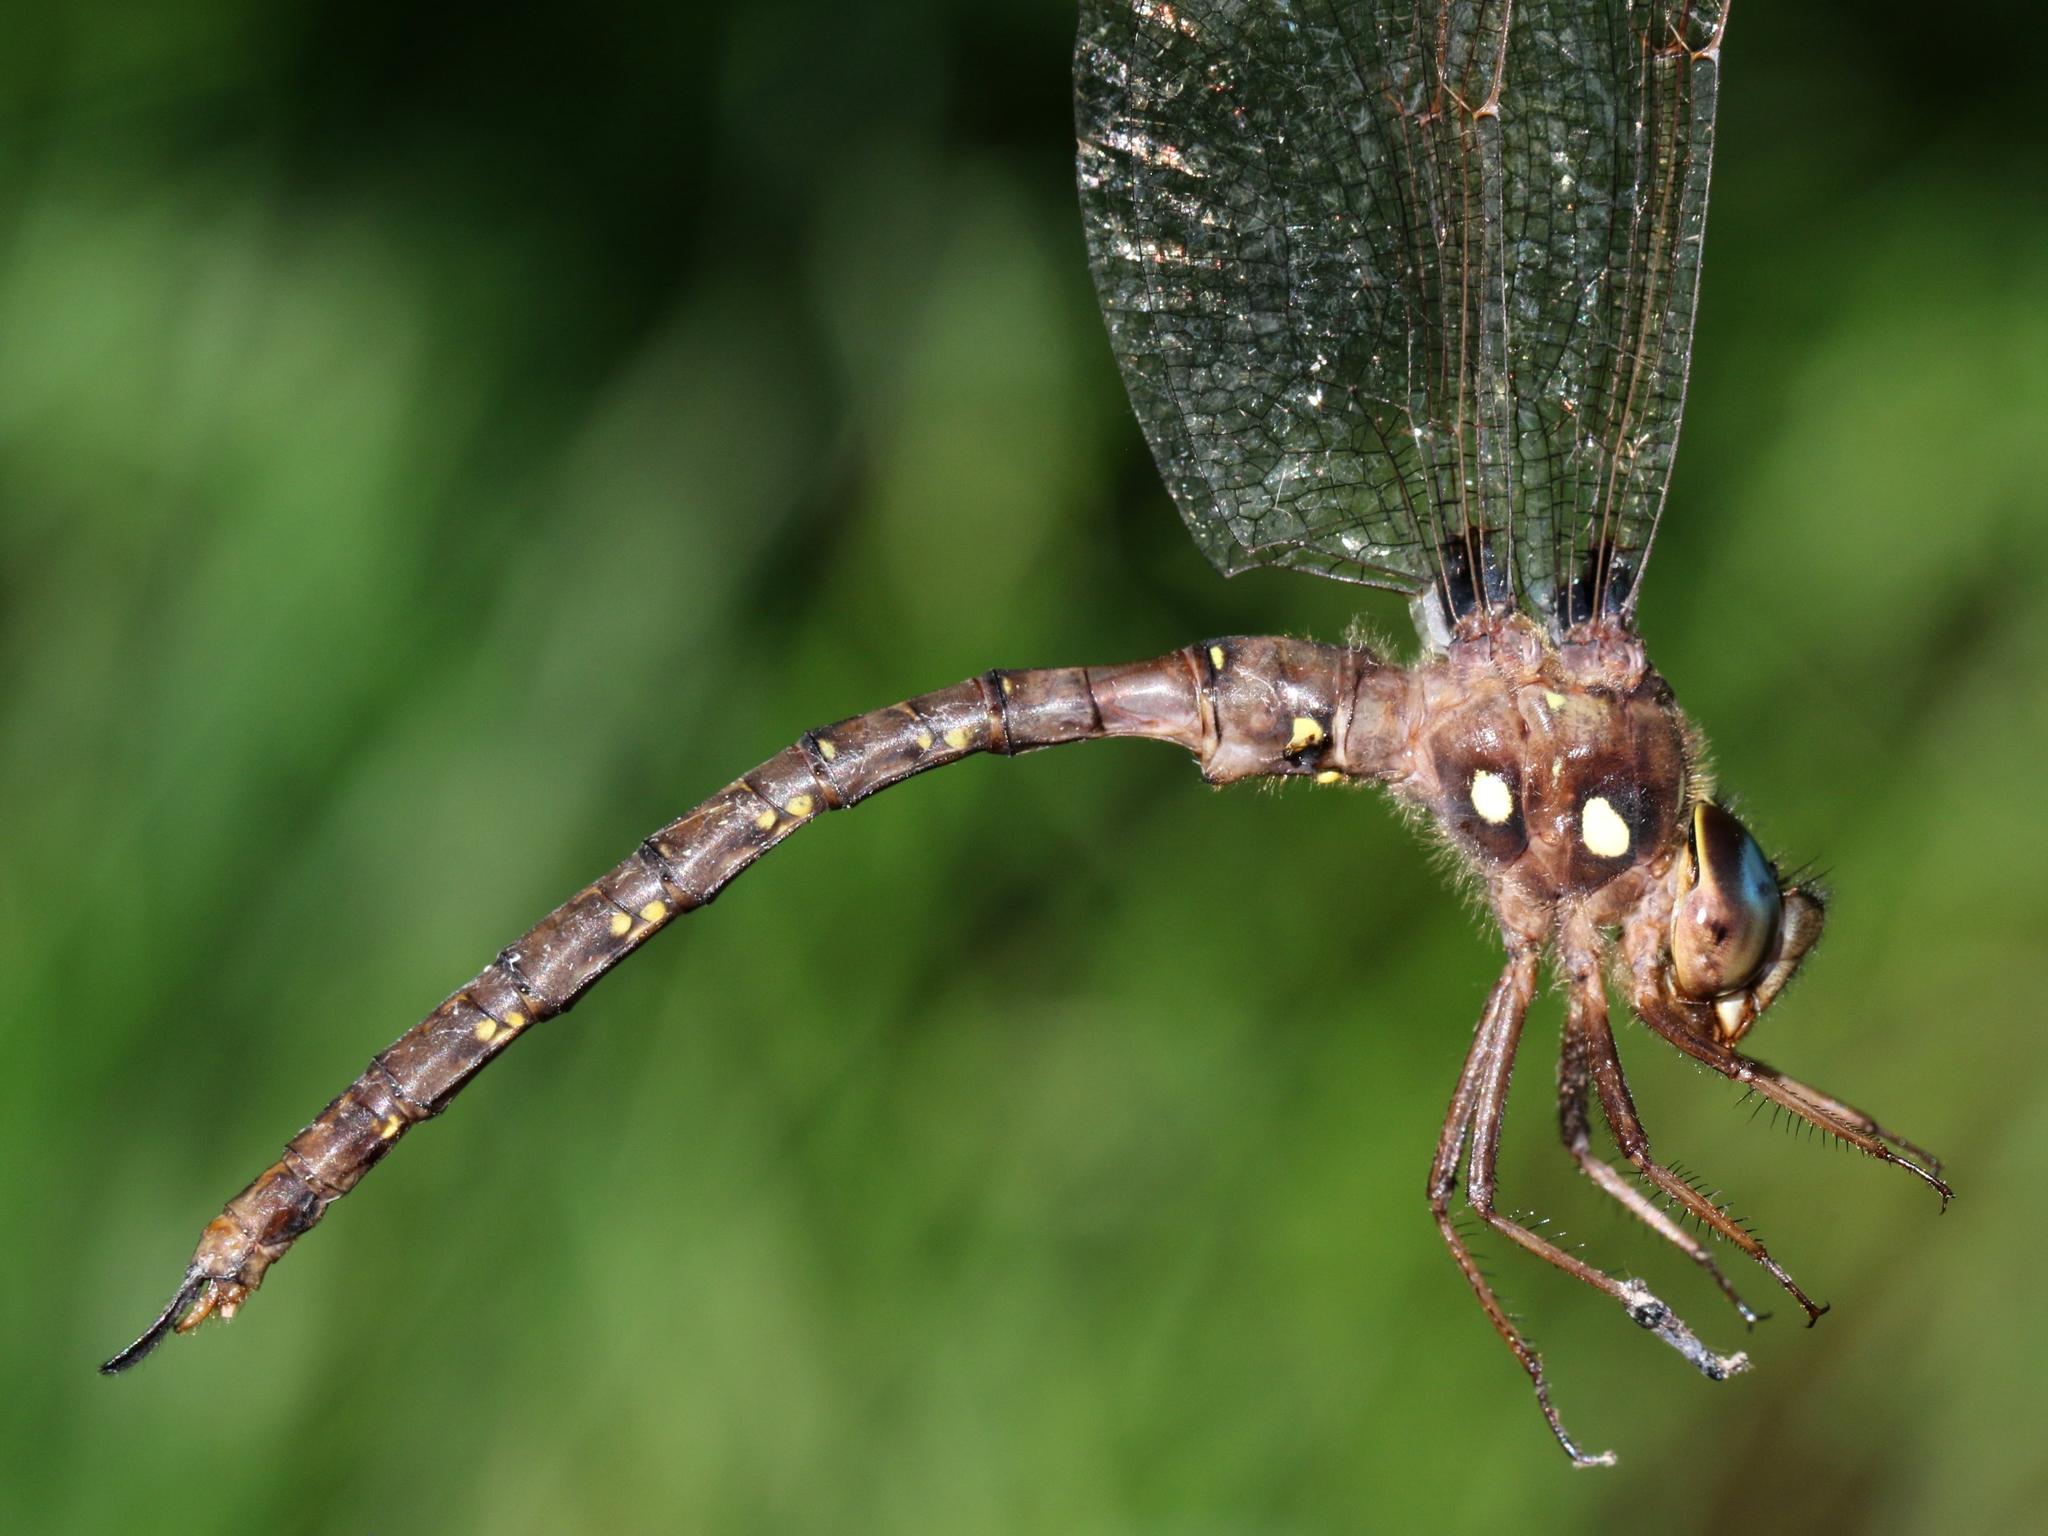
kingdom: Animalia
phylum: Arthropoda
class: Insecta
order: Odonata
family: Aeshnidae
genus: Boyeria
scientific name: Boyeria vinosa
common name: Fawn darner
